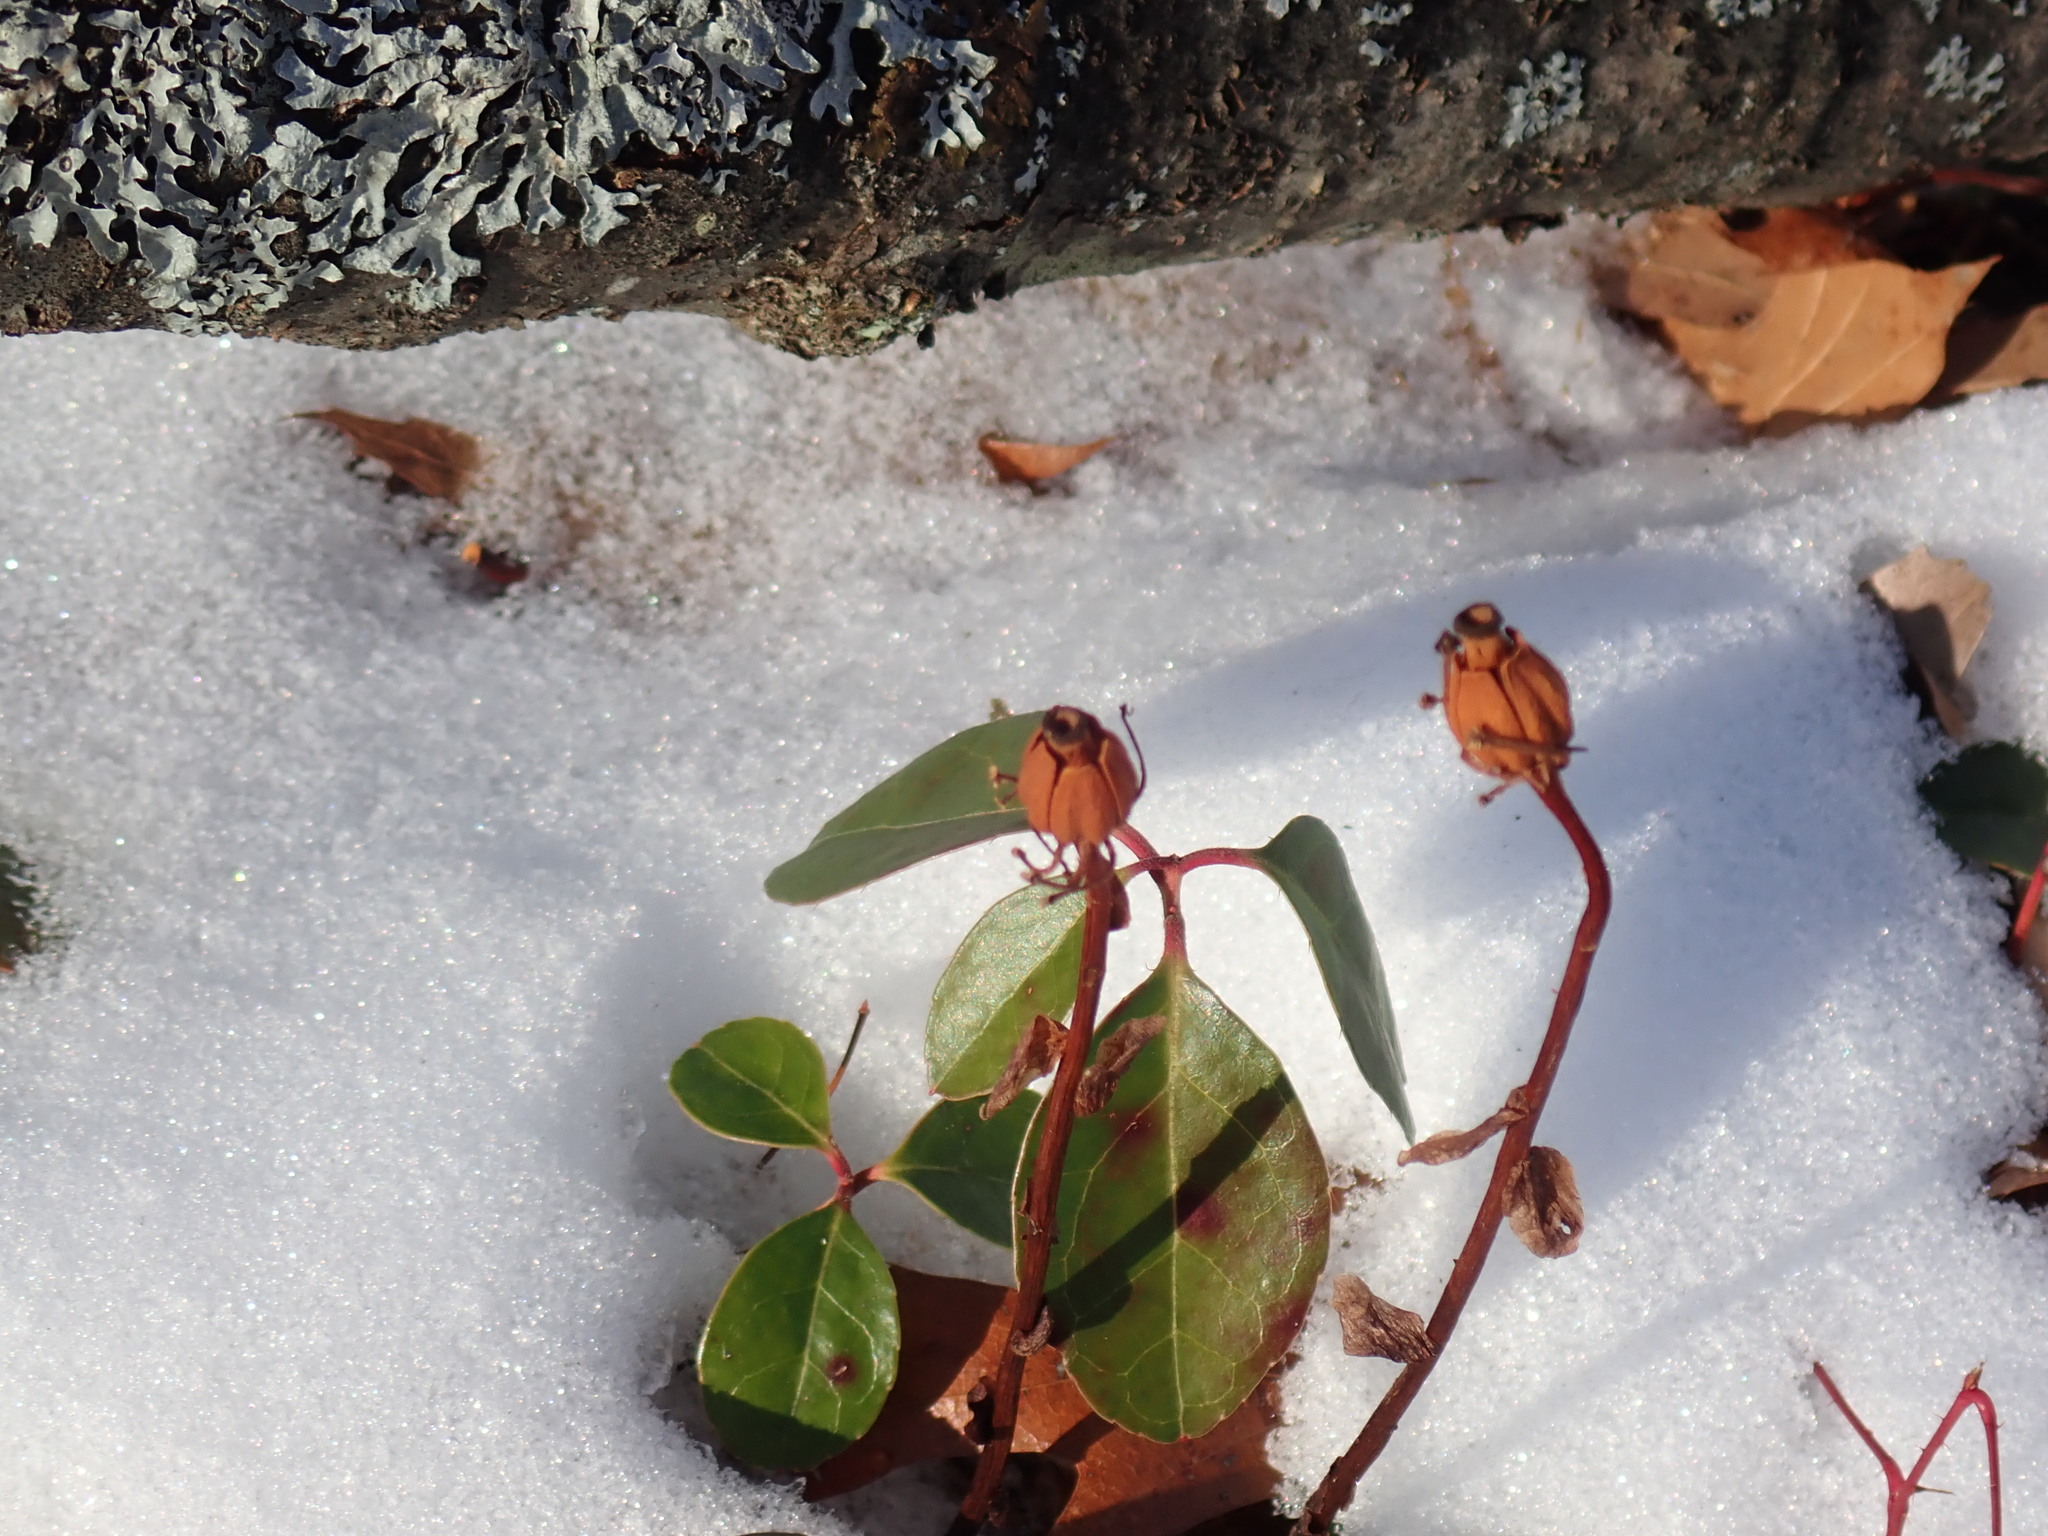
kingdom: Plantae
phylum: Tracheophyta
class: Magnoliopsida
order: Ericales
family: Ericaceae
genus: Monotropa
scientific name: Monotropa uniflora
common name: Convulsion root
